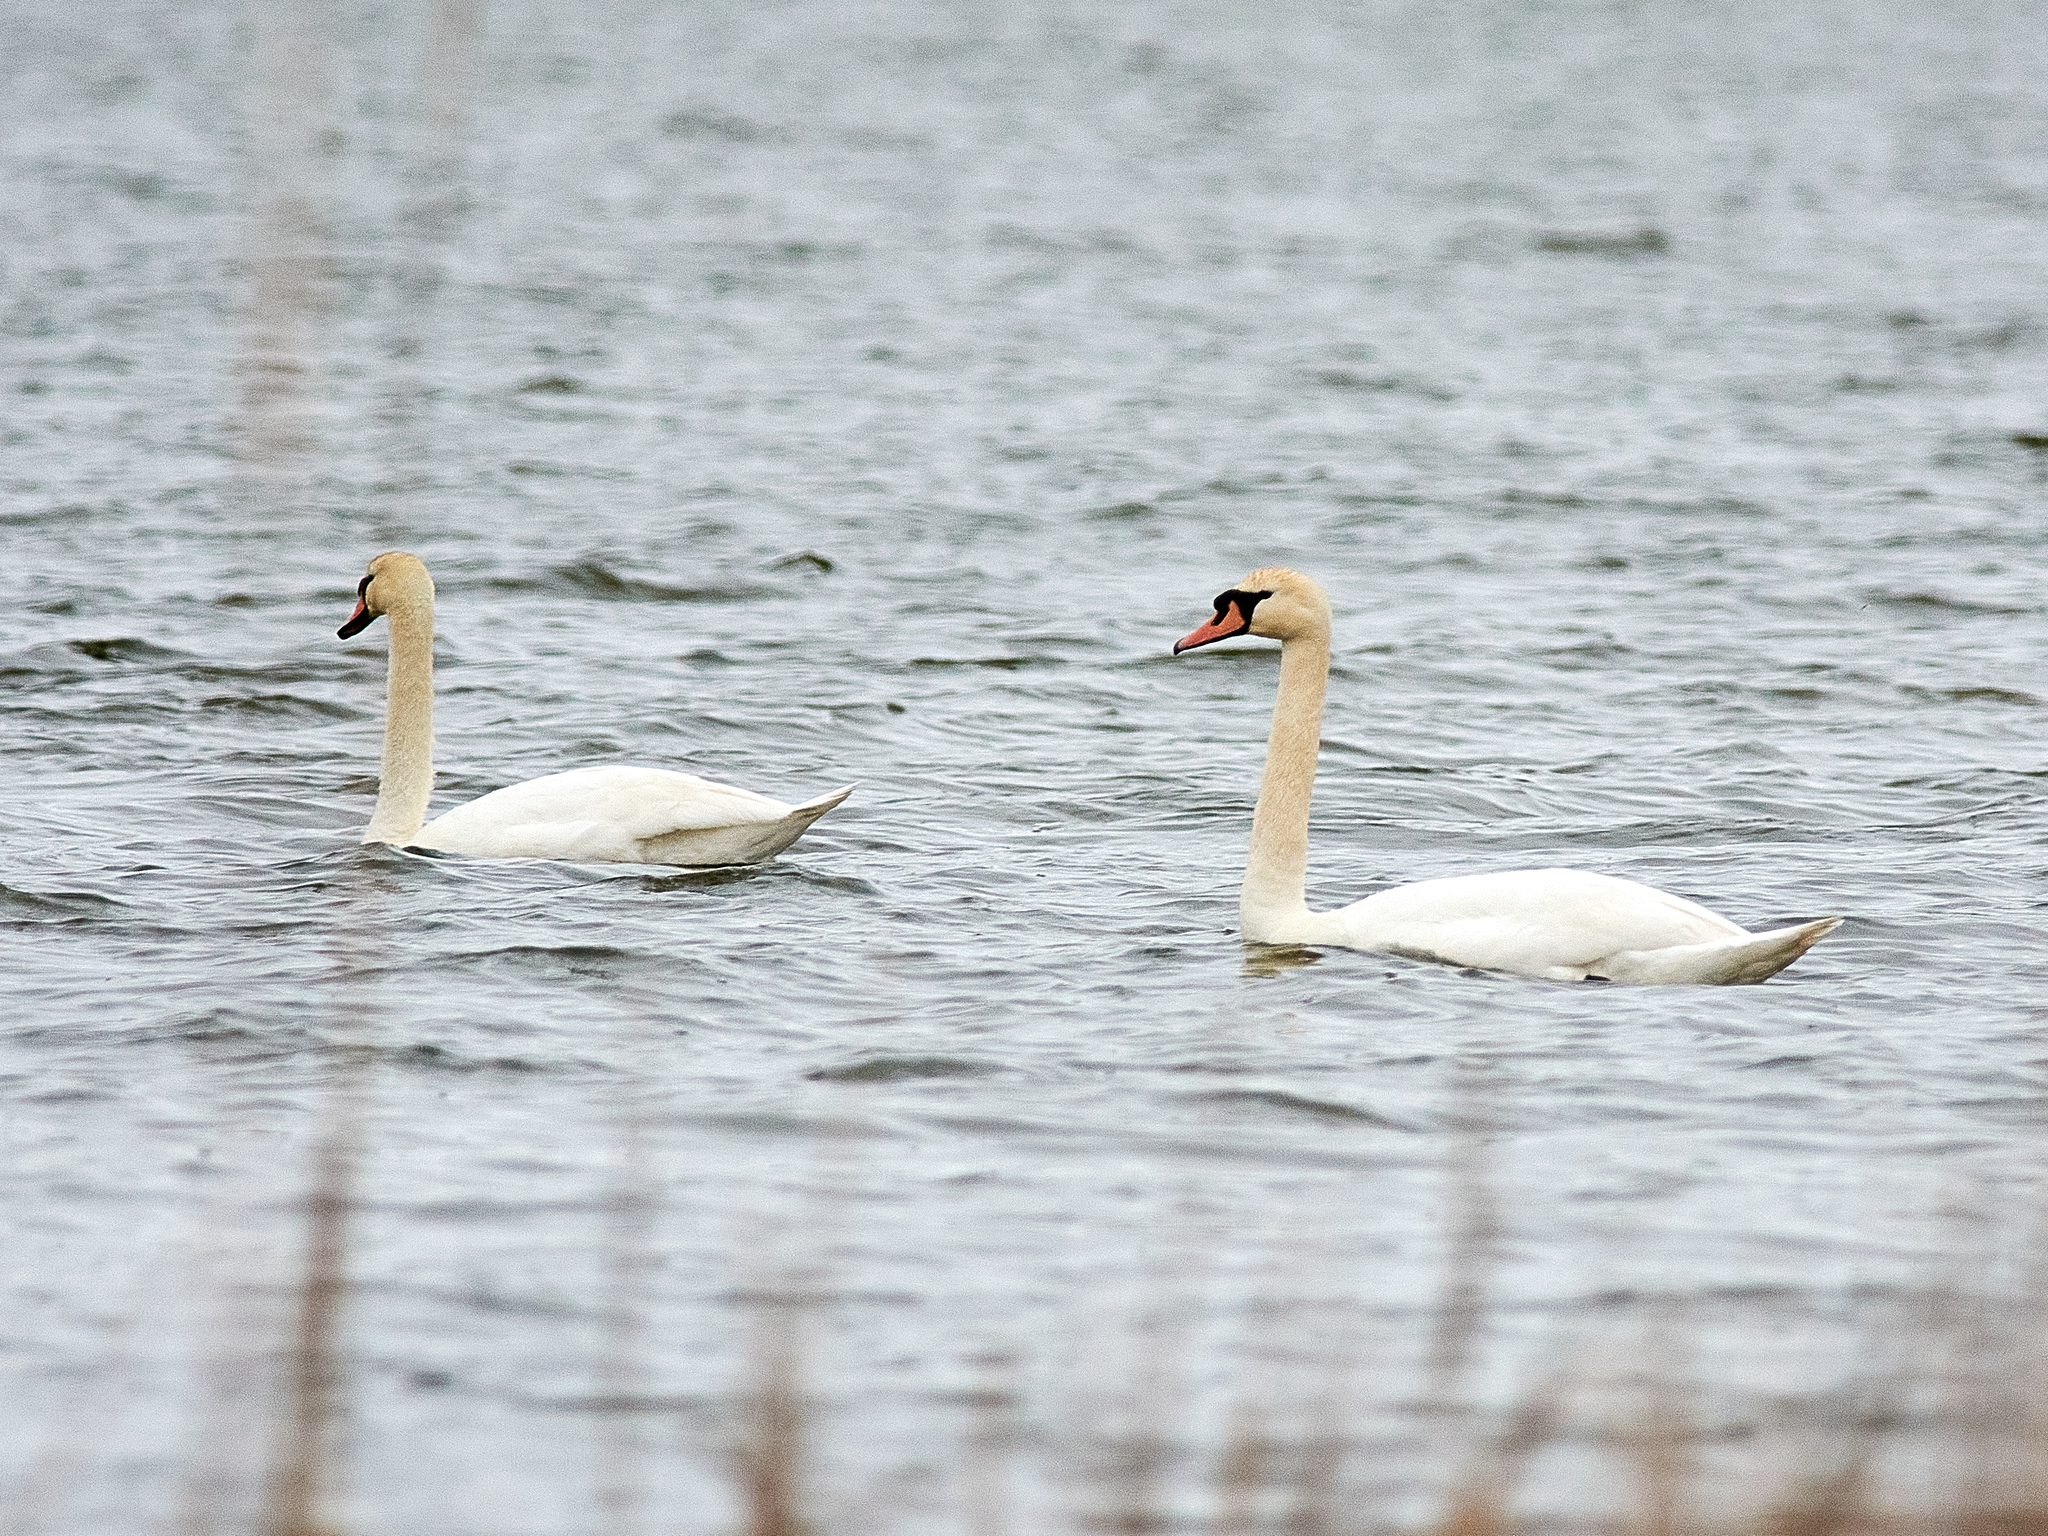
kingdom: Animalia
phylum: Chordata
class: Aves
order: Anseriformes
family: Anatidae
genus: Cygnus
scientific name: Cygnus olor
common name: Mute swan
